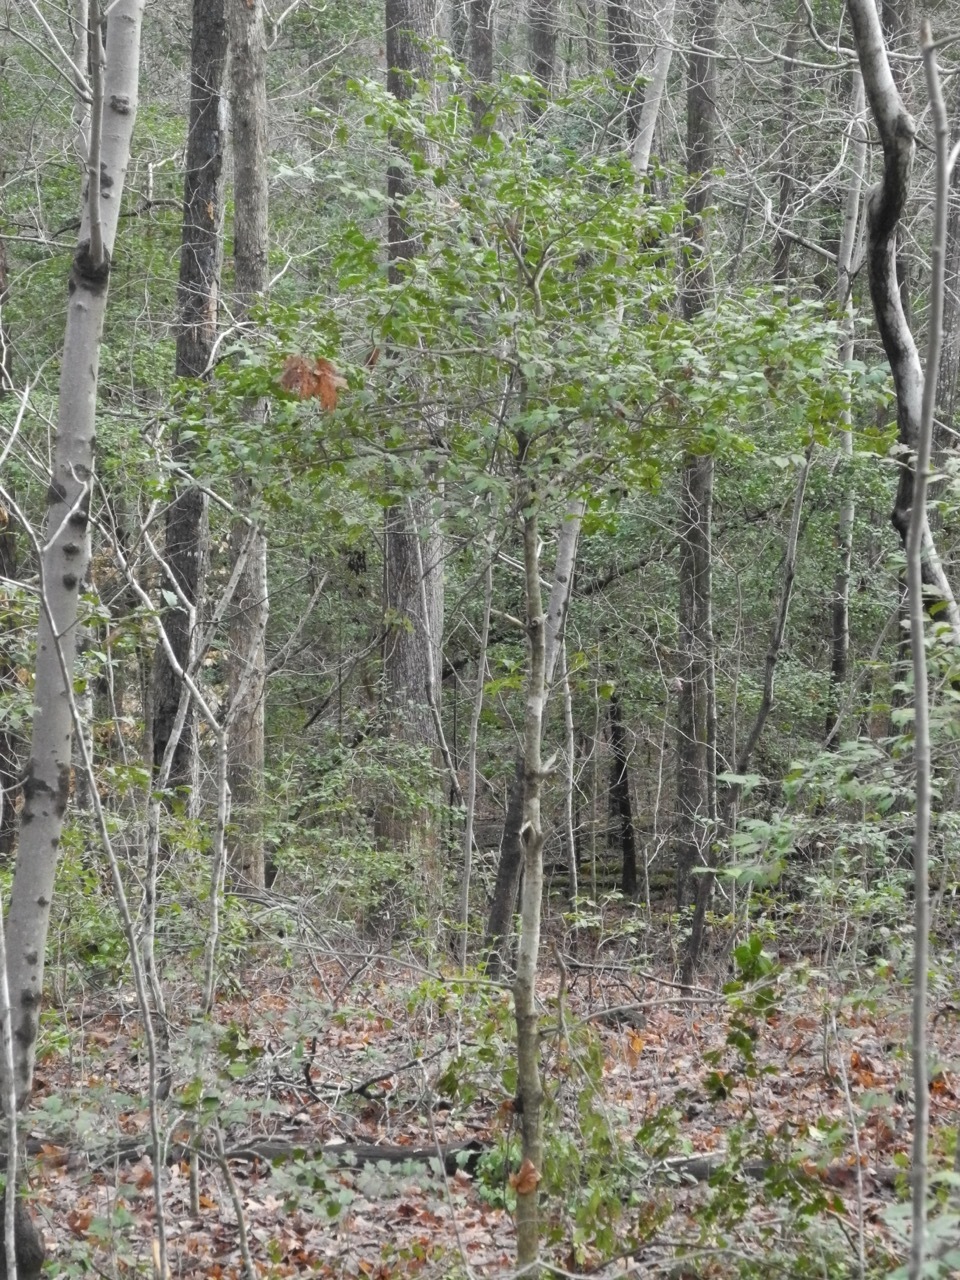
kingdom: Plantae
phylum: Tracheophyta
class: Magnoliopsida
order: Aquifoliales
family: Aquifoliaceae
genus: Ilex
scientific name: Ilex opaca
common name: American holly
